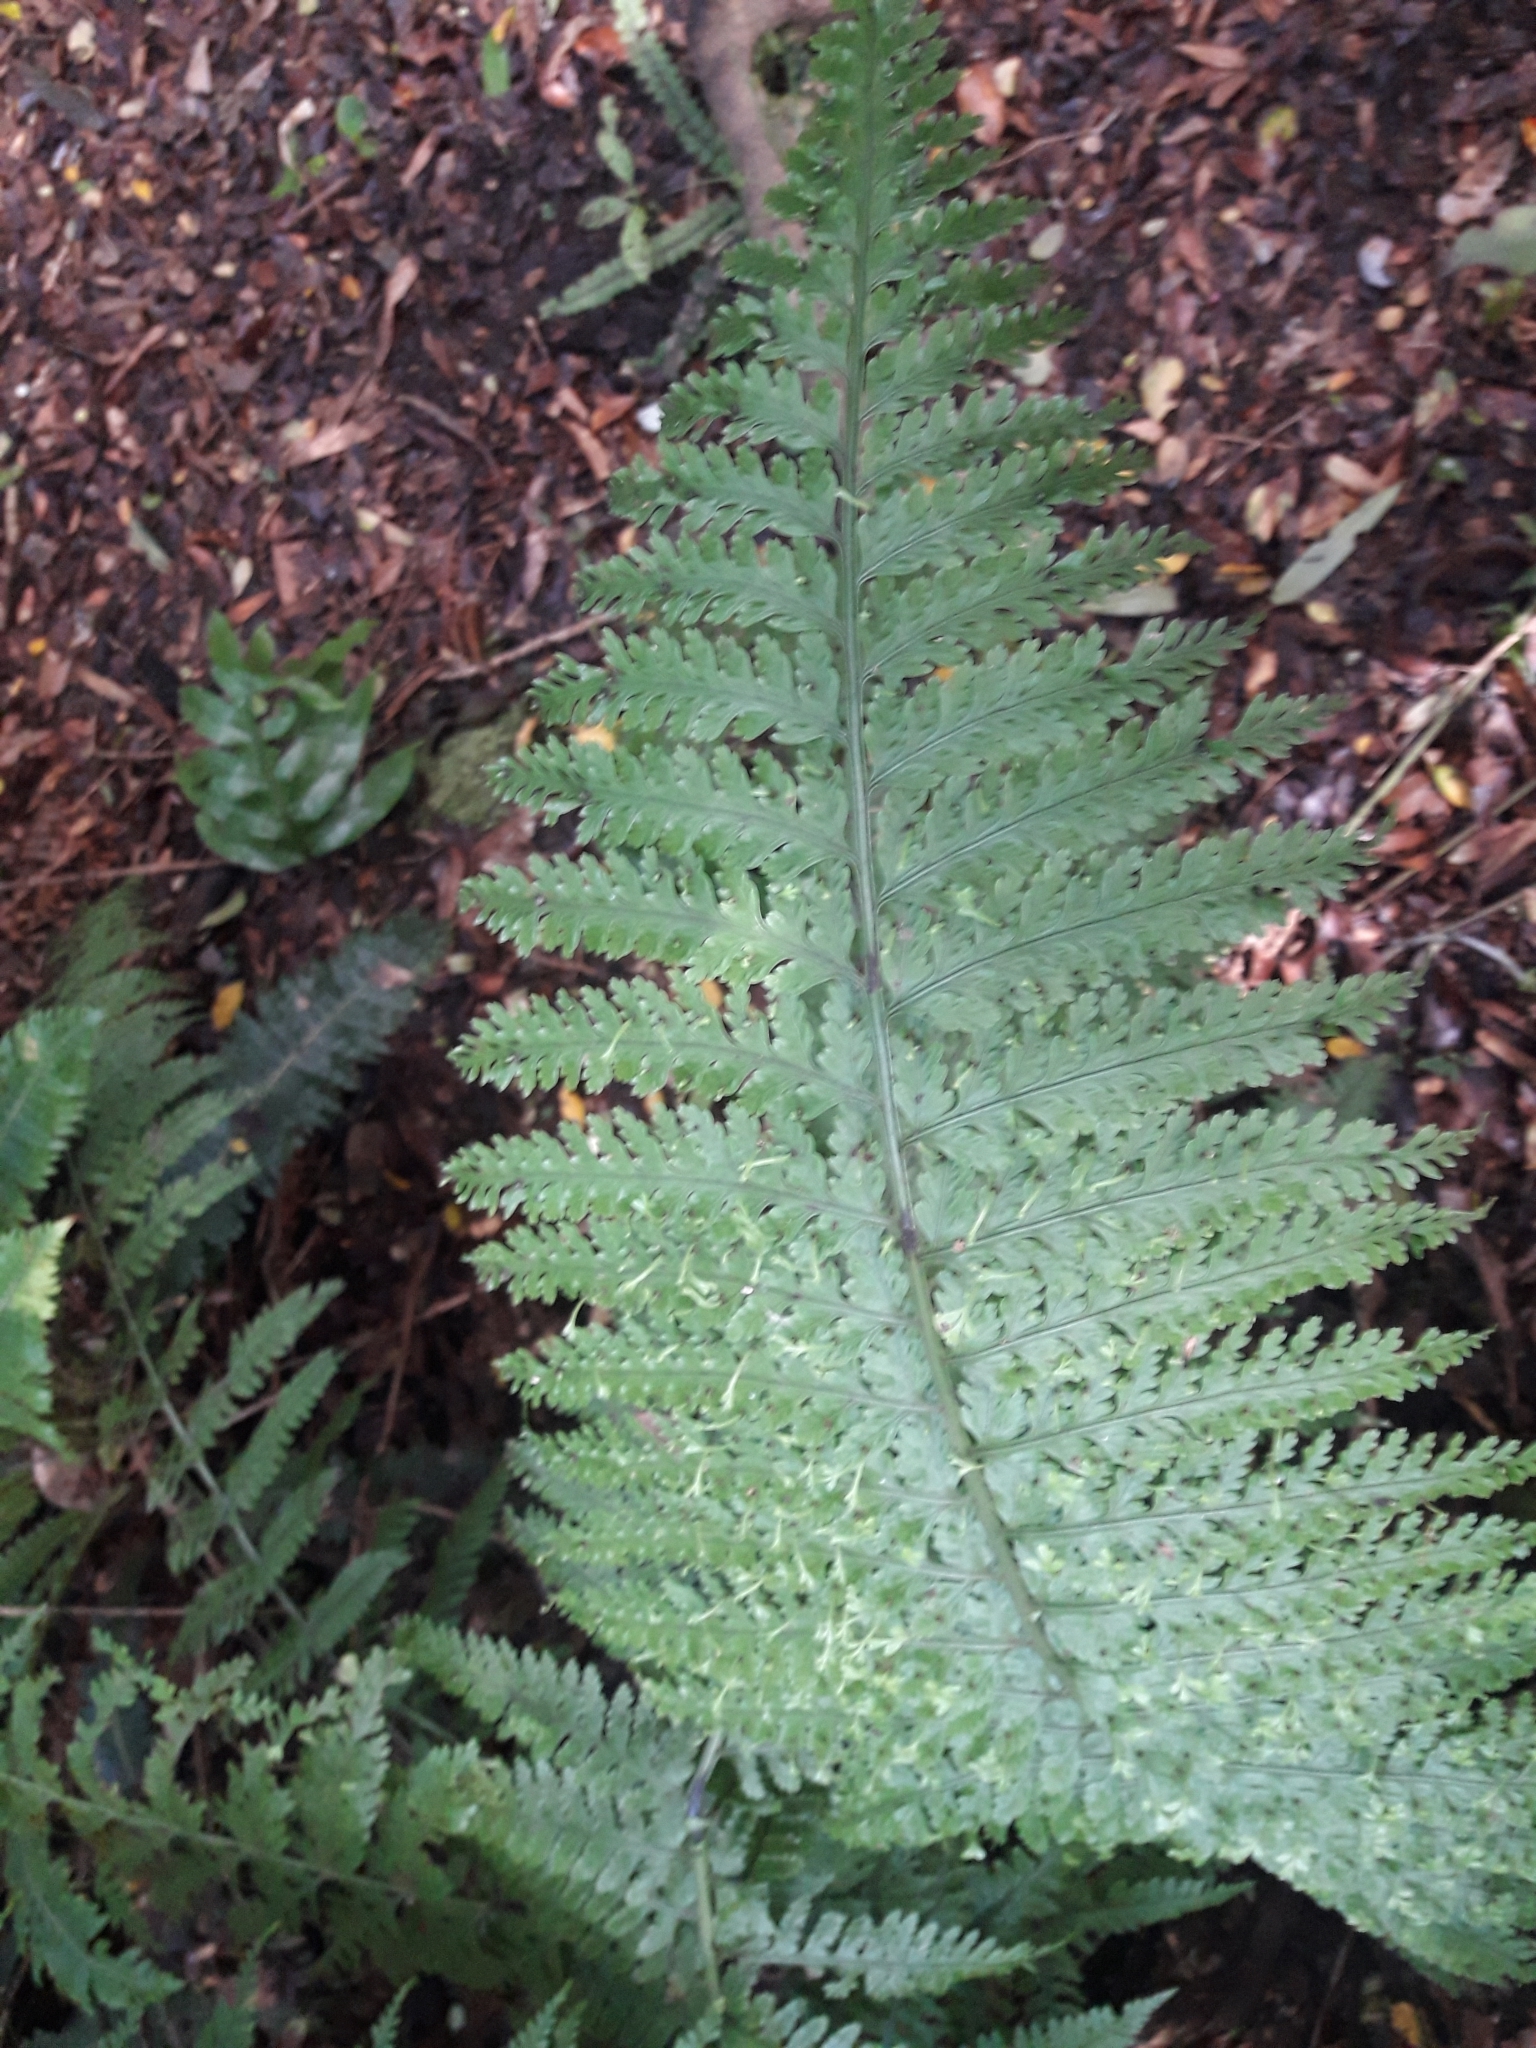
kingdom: Plantae
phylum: Tracheophyta
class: Polypodiopsida
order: Polypodiales
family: Aspleniaceae
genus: Asplenium
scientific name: Asplenium bulbiferum
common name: Mother fern
